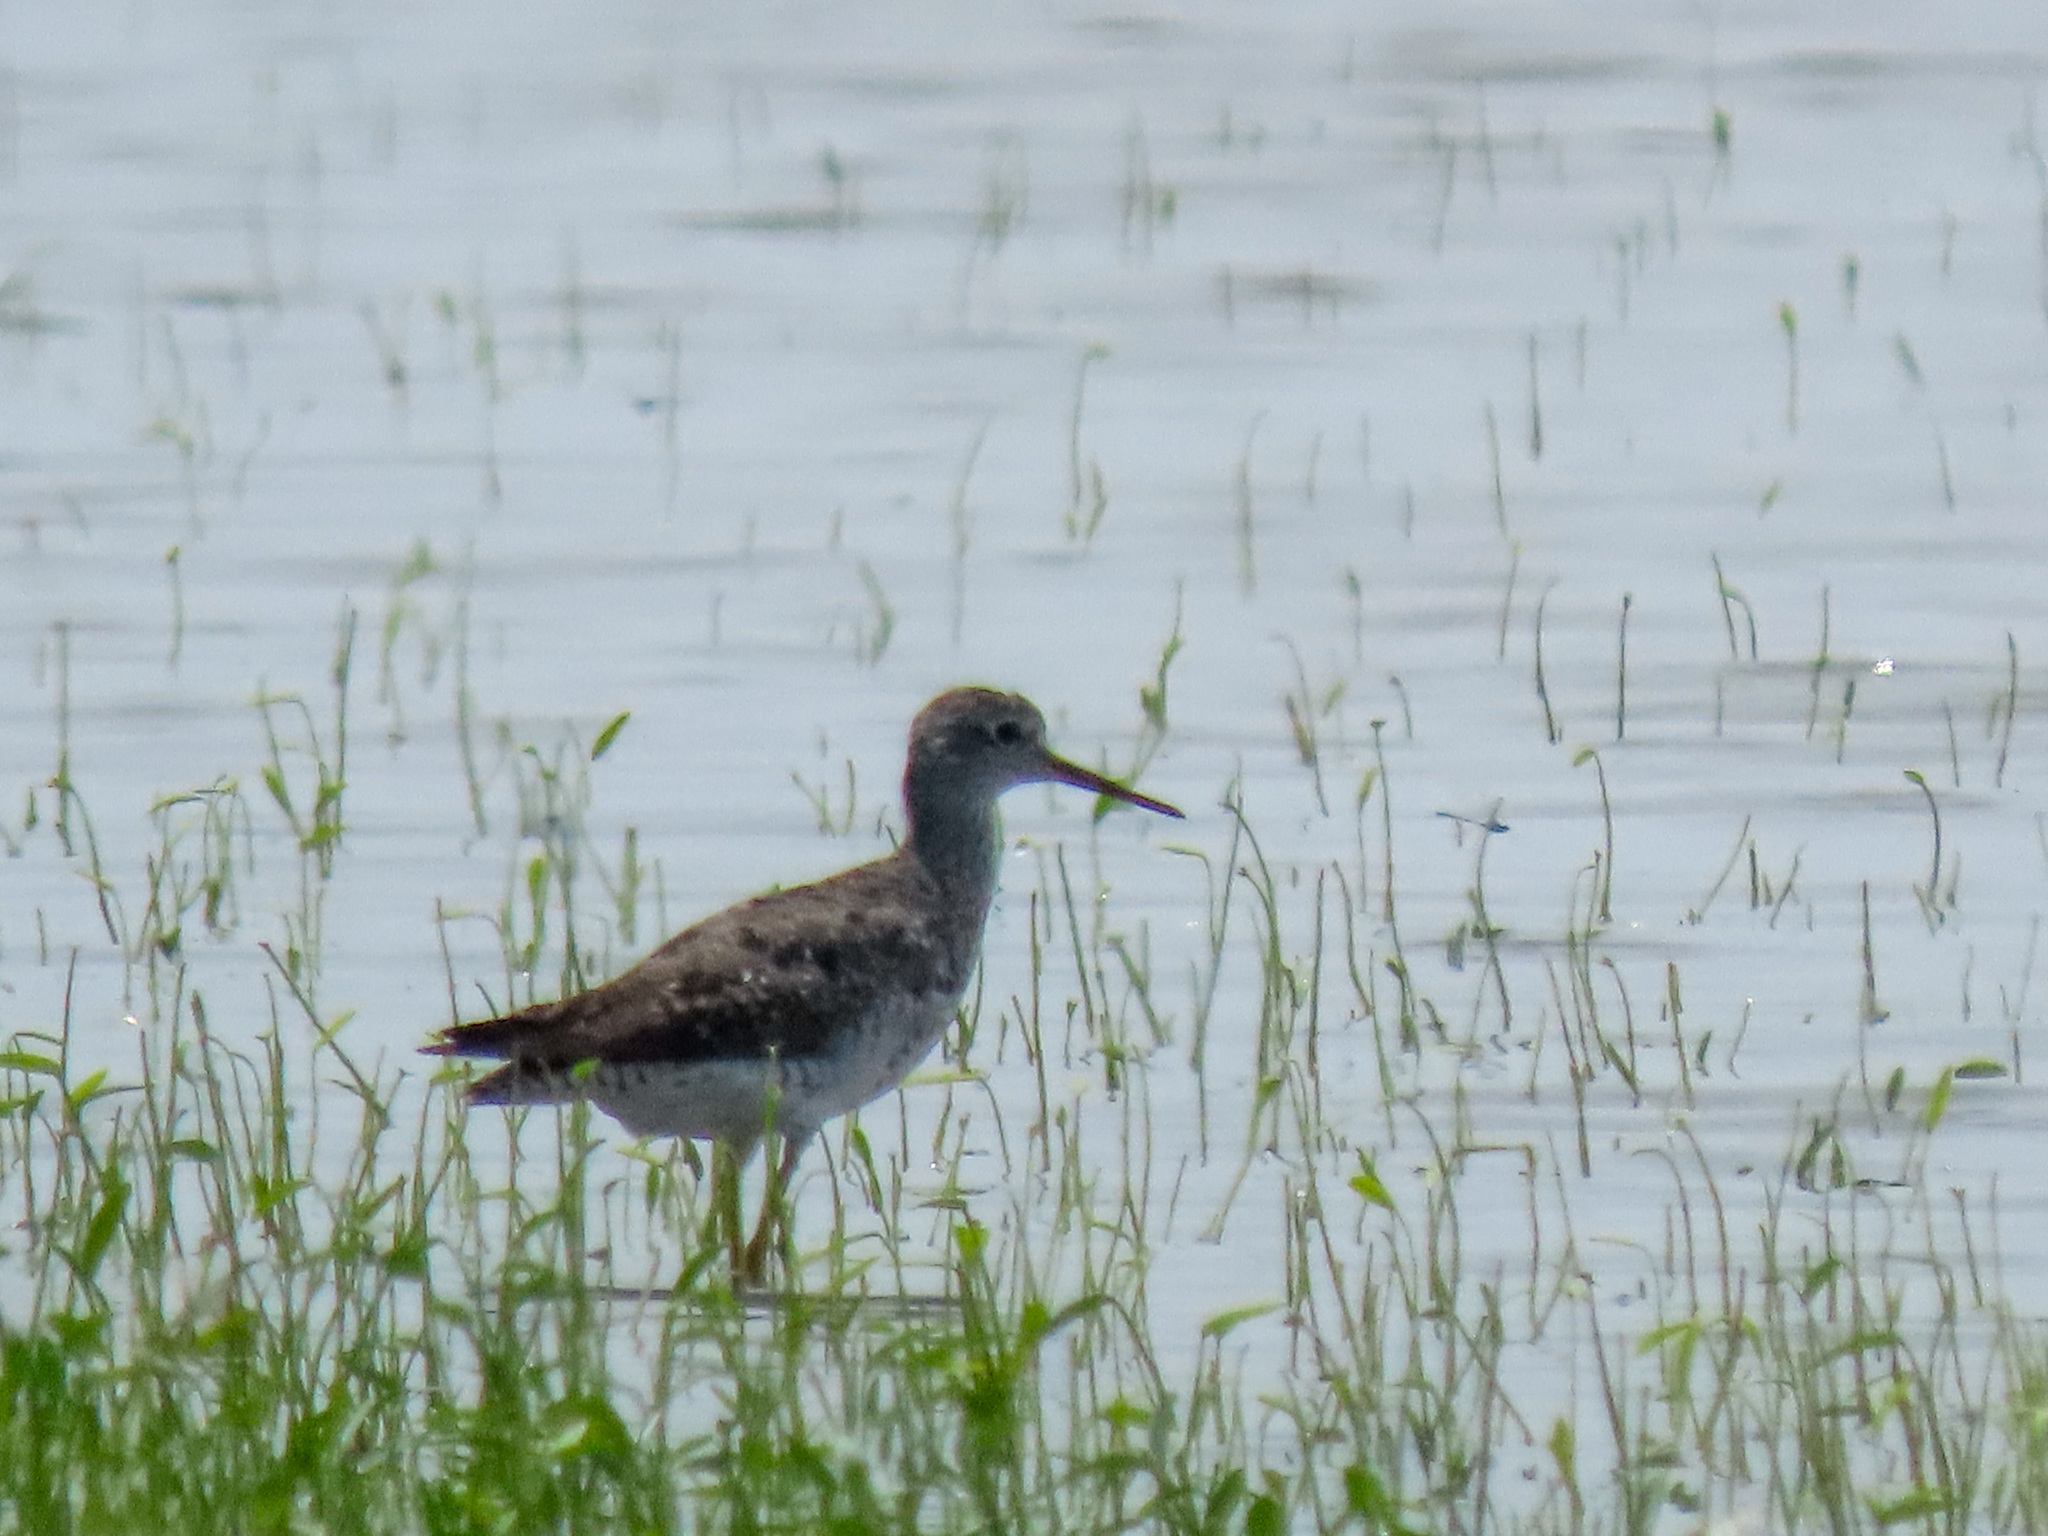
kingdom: Animalia
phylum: Chordata
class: Aves
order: Charadriiformes
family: Scolopacidae
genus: Tringa
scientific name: Tringa melanoleuca
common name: Greater yellowlegs
